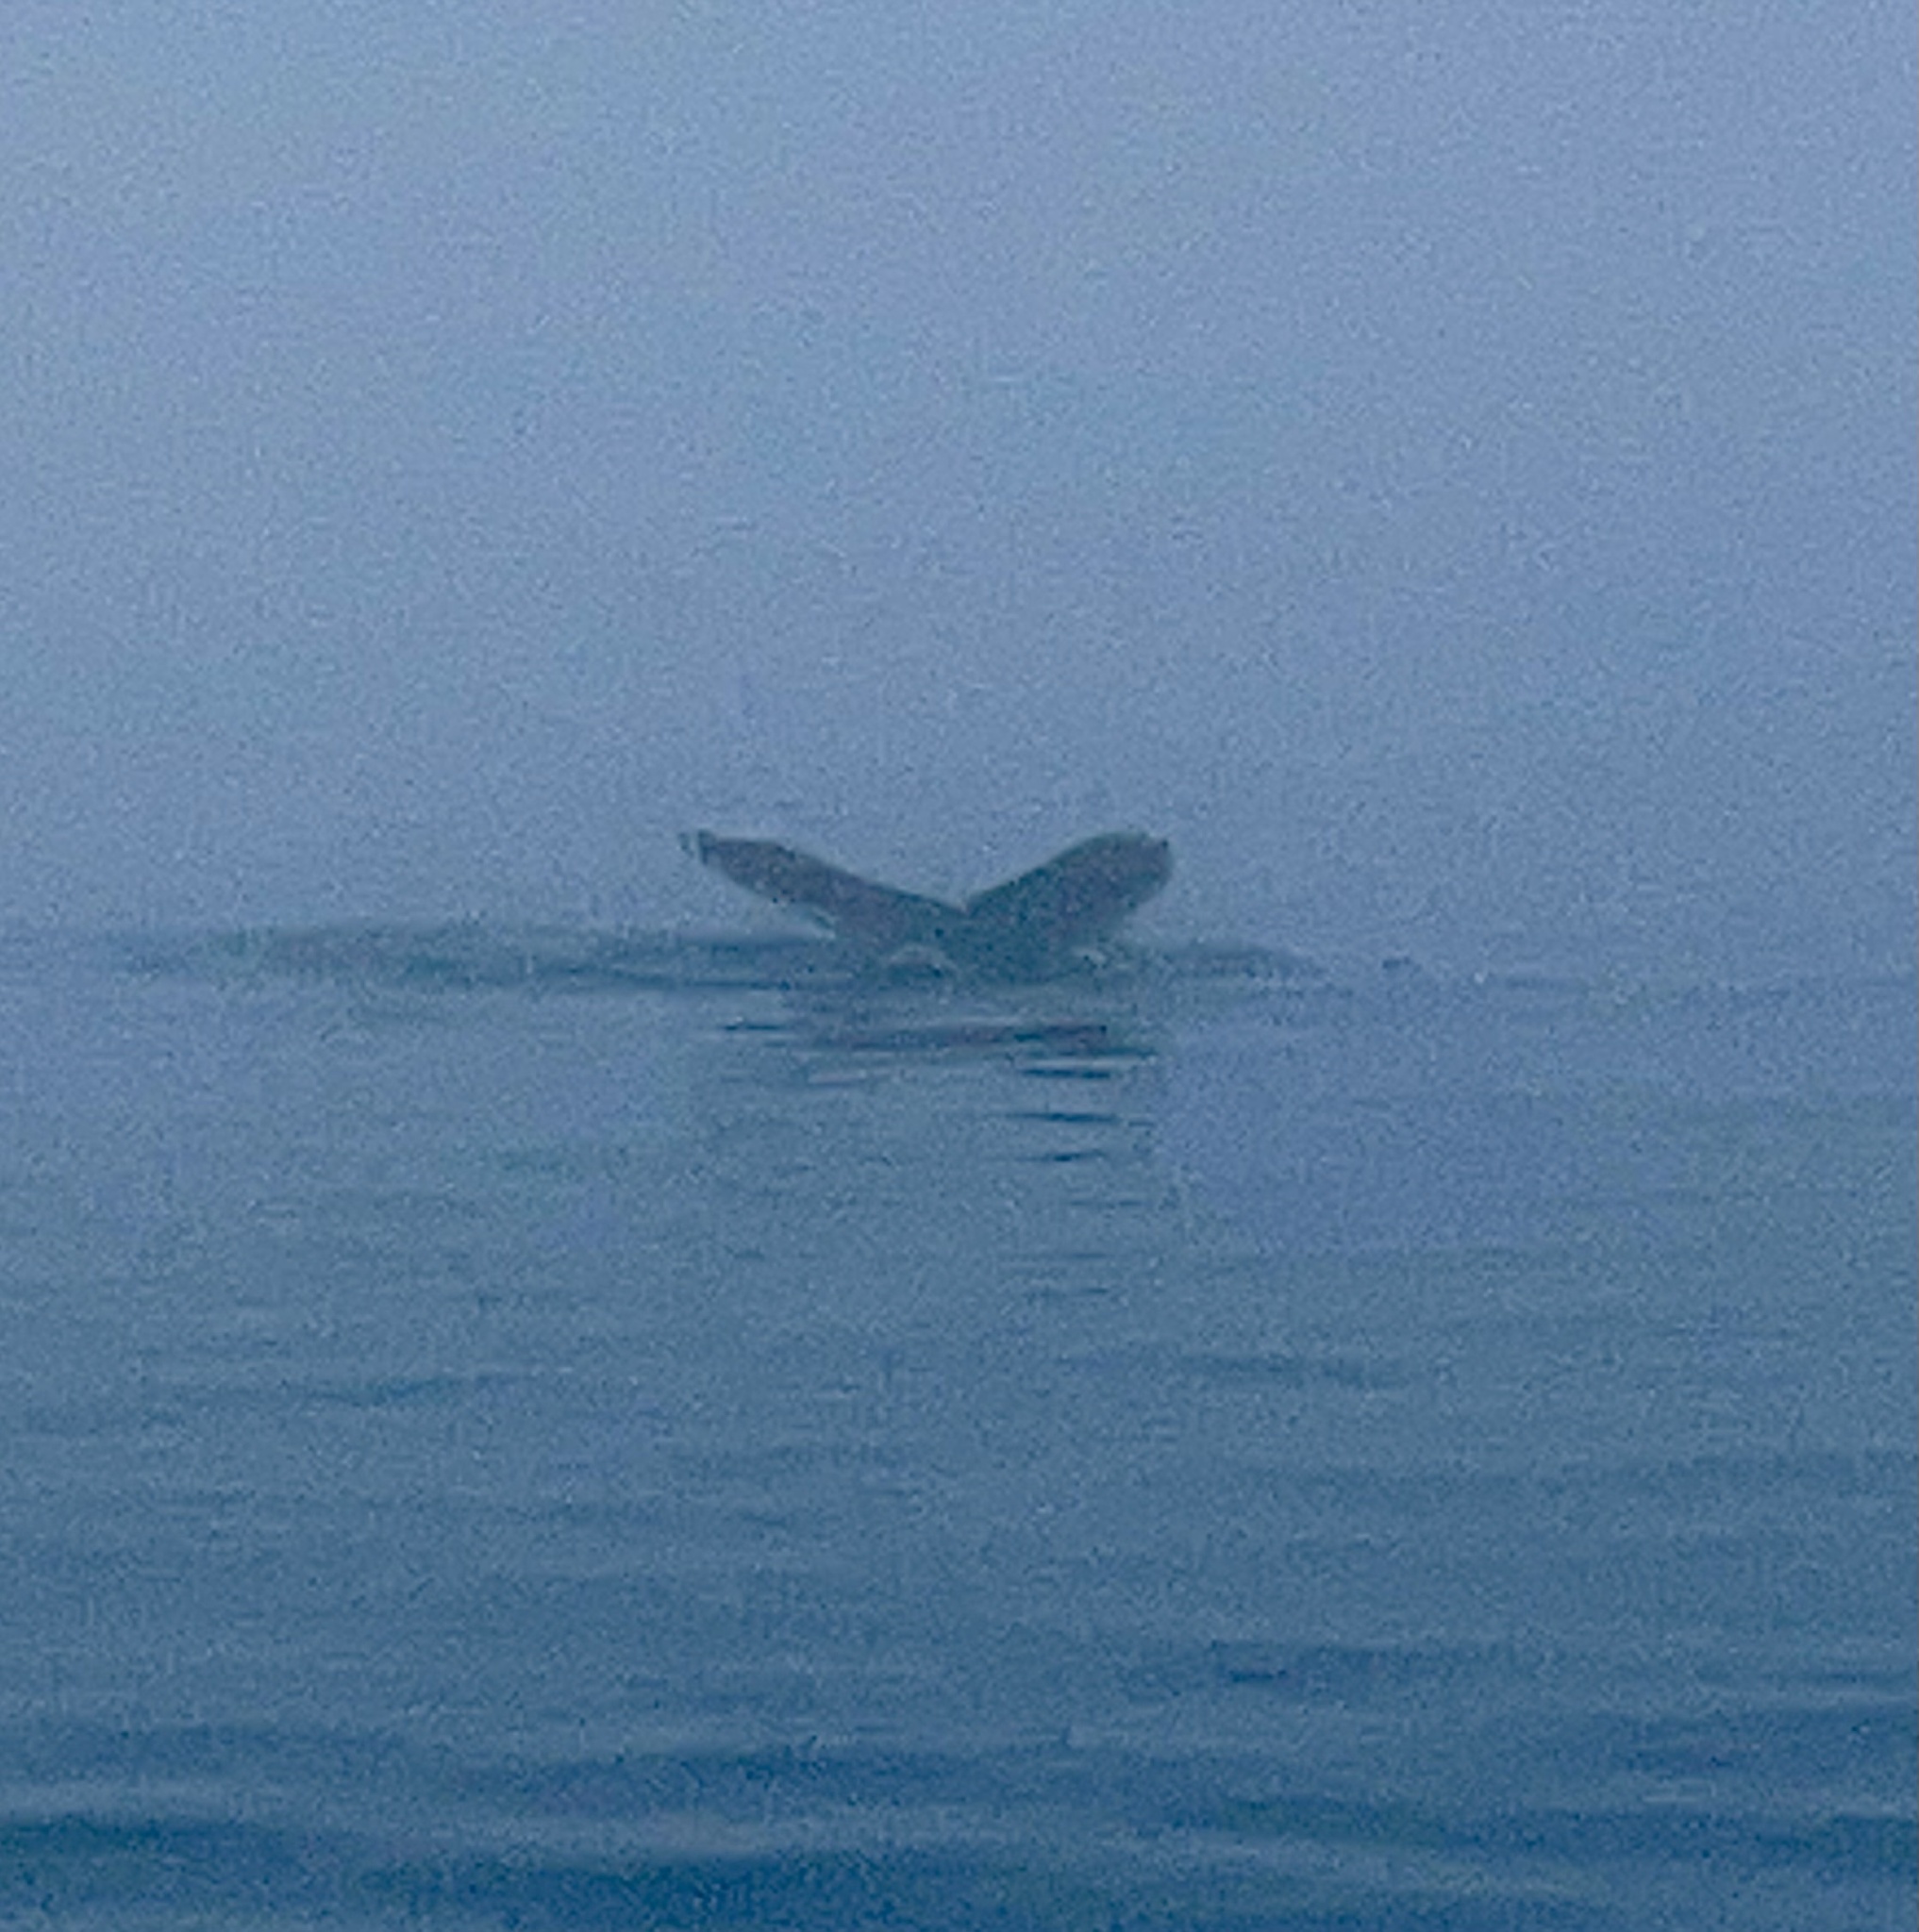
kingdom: Animalia
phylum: Chordata
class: Mammalia
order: Cetacea
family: Balaenopteridae
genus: Megaptera
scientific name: Megaptera novaeangliae
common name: Humpback whale
